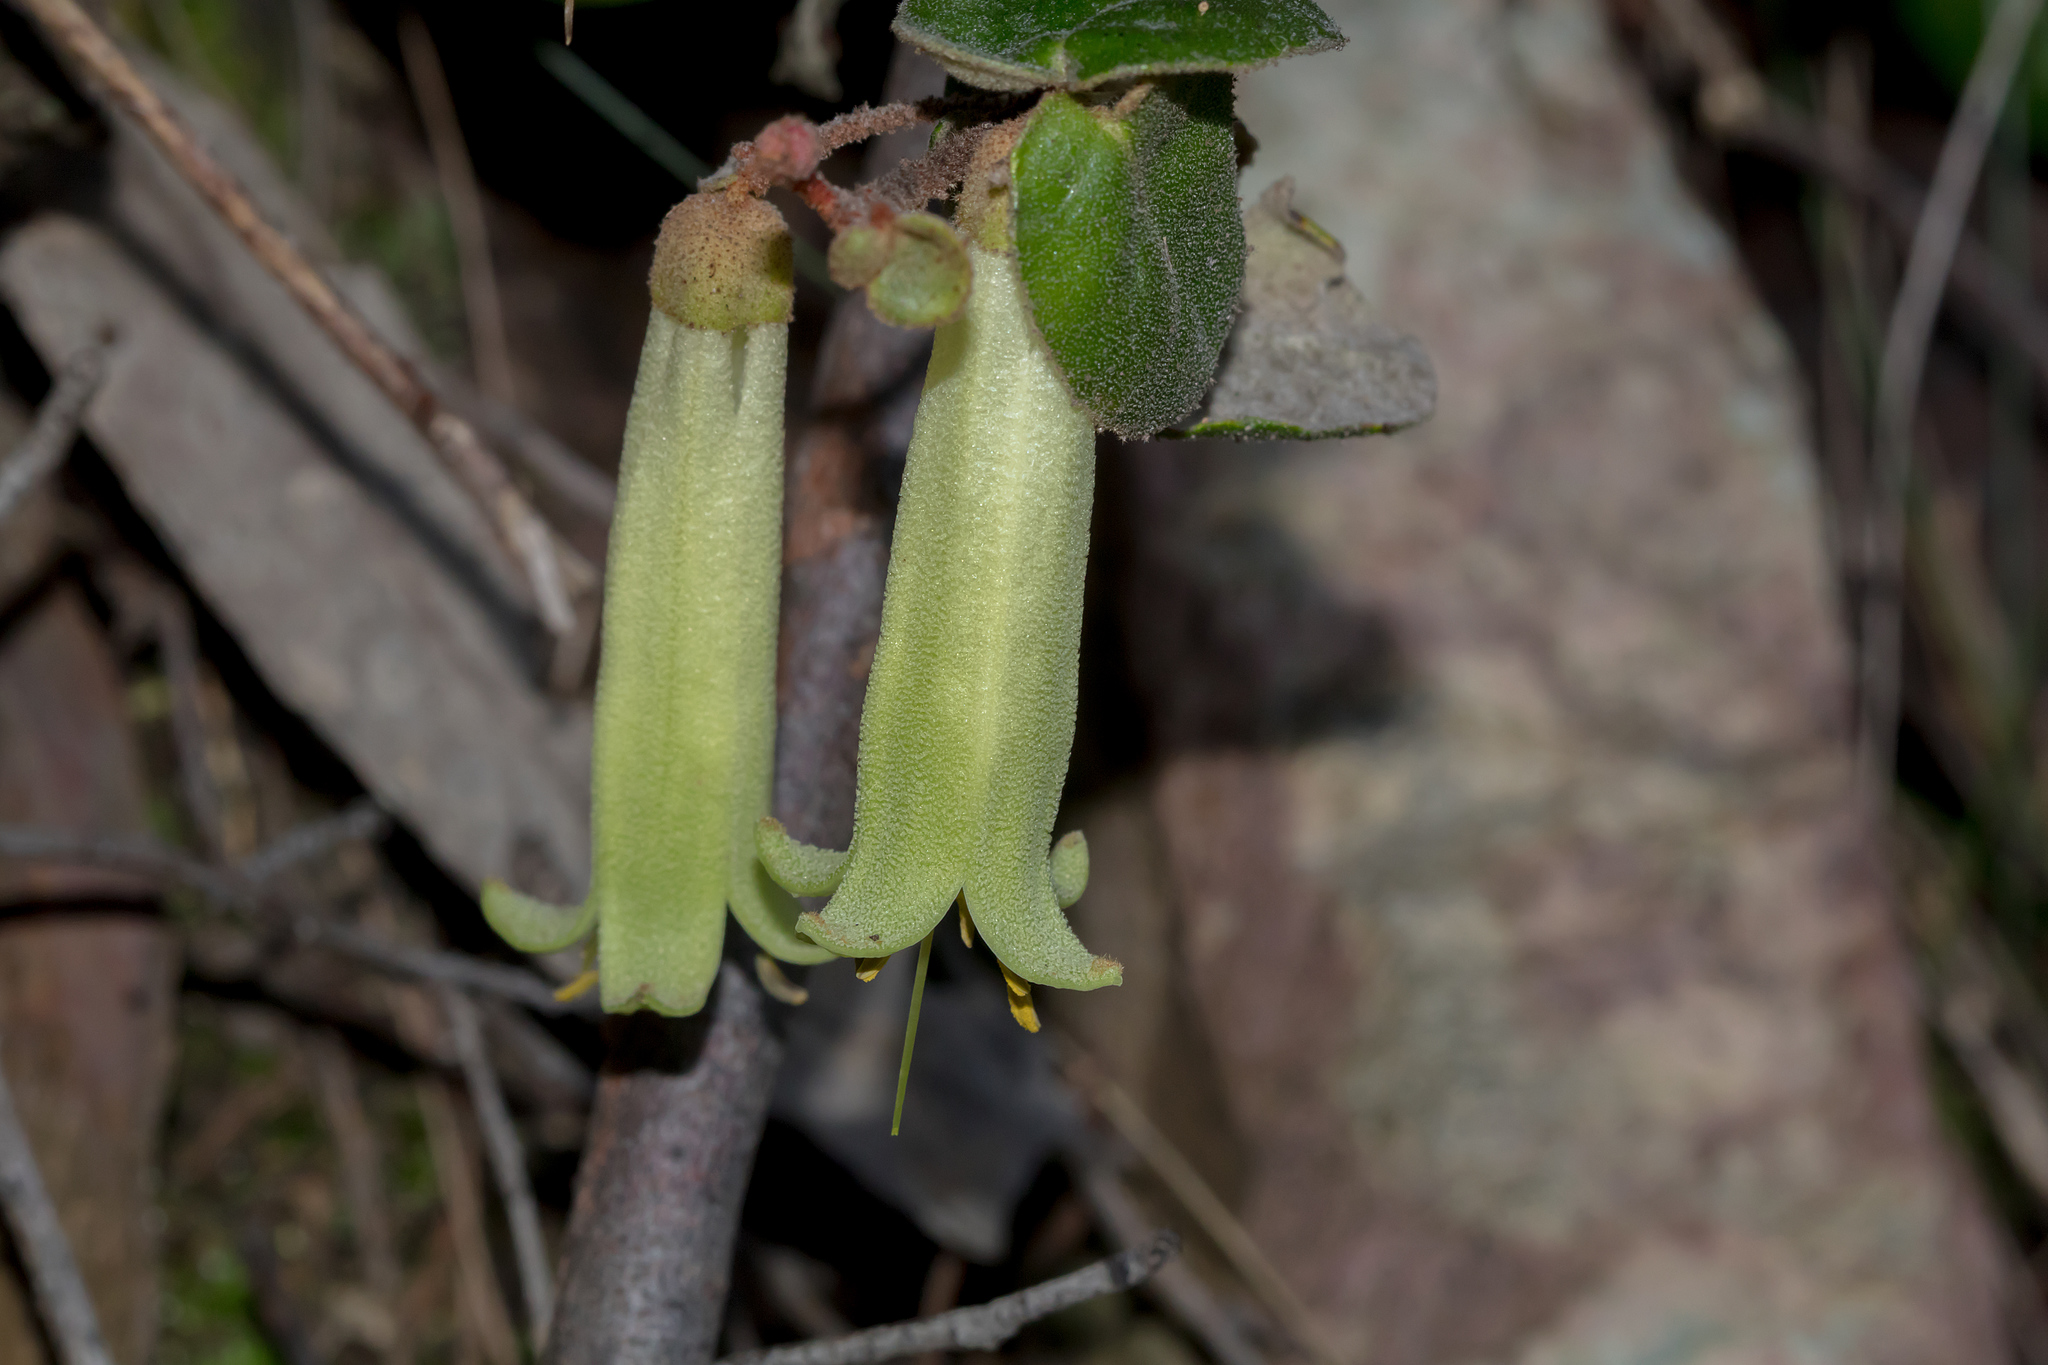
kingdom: Plantae
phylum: Tracheophyta
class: Magnoliopsida
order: Sapindales
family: Rutaceae
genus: Correa
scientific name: Correa reflexa
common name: Common correa
